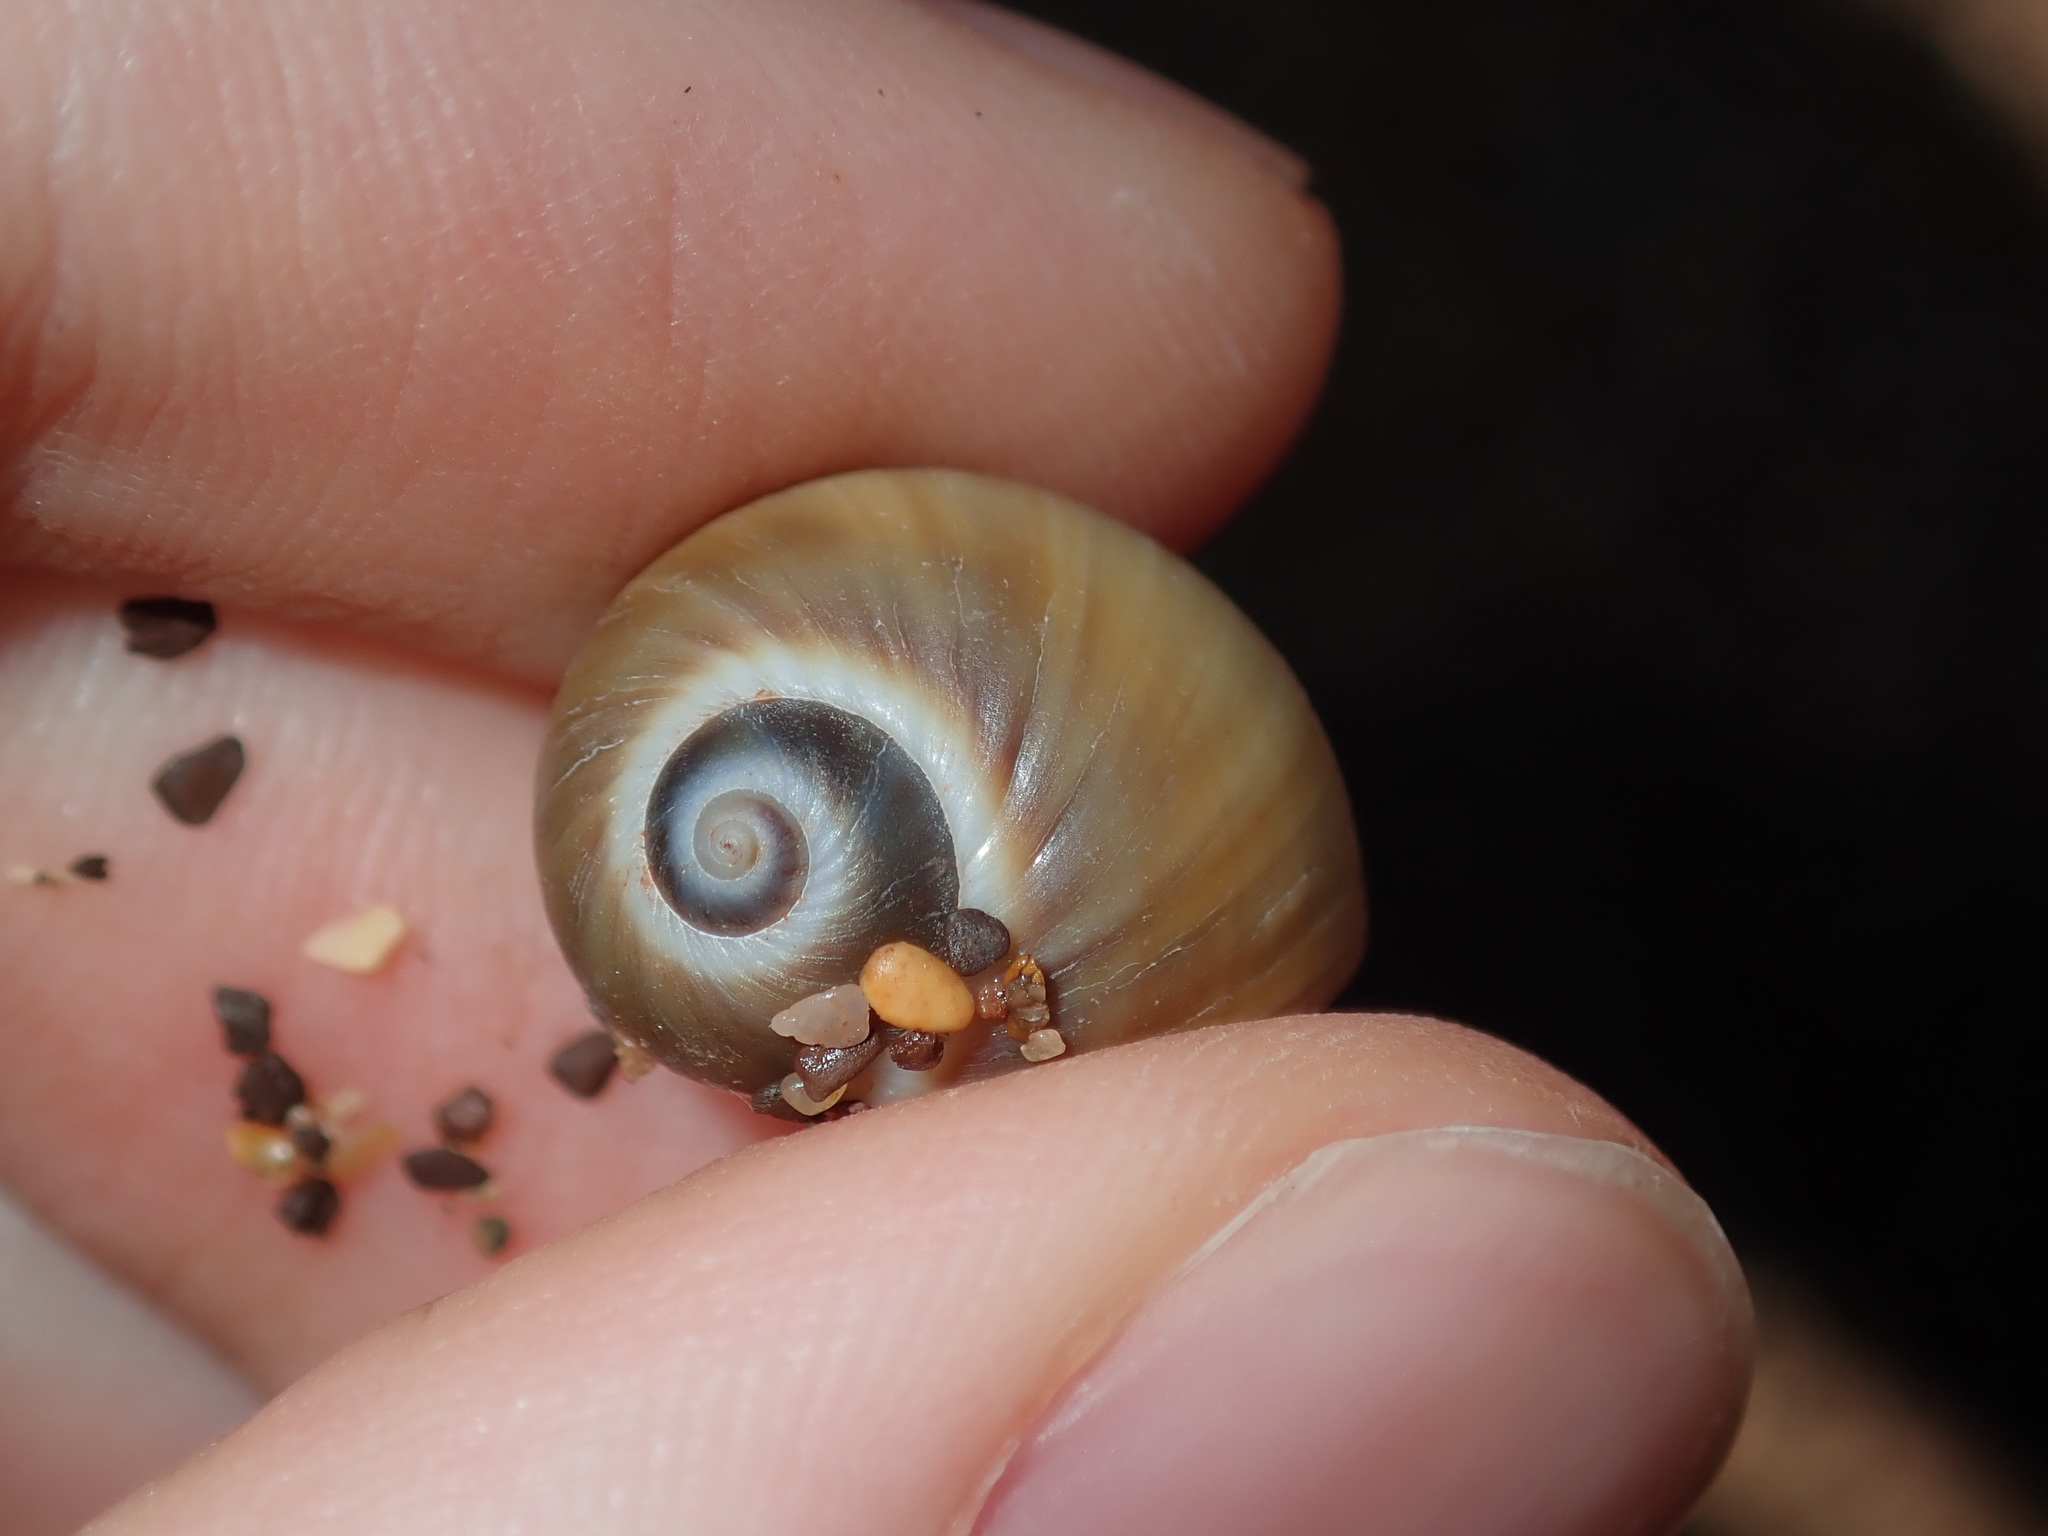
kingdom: Animalia
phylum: Mollusca
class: Gastropoda
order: Littorinimorpha
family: Naticidae
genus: Notocochlis
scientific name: Notocochlis gualteriana
